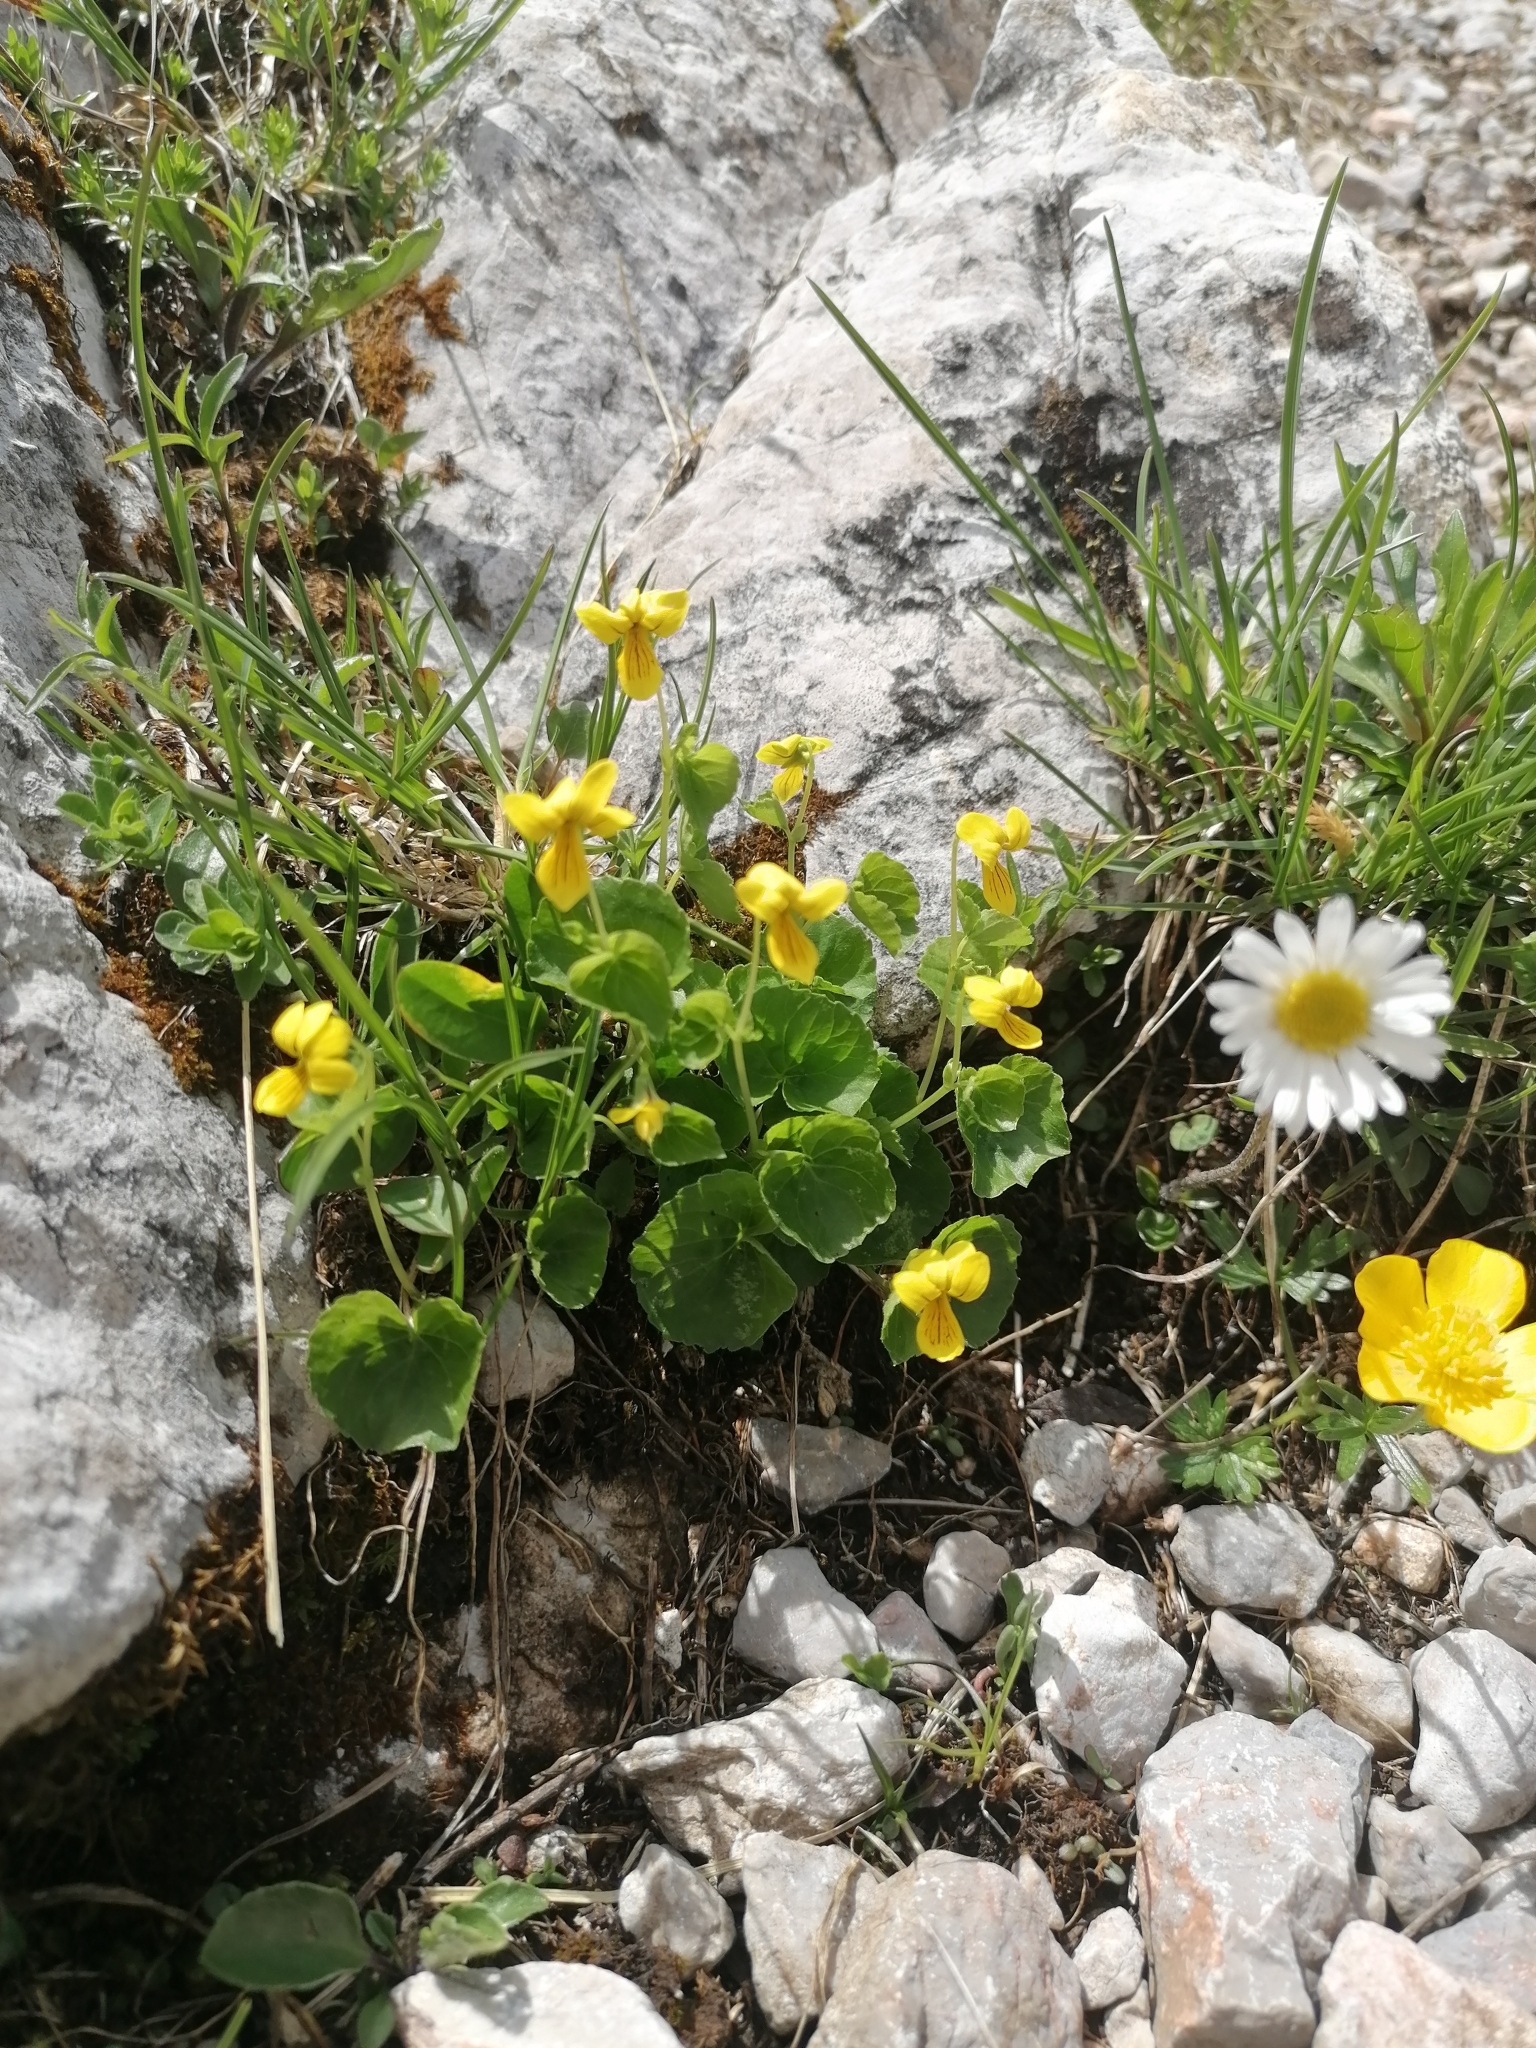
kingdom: Plantae
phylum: Tracheophyta
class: Magnoliopsida
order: Malpighiales
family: Violaceae
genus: Viola
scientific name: Viola biflora
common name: Alpine yellow violet
